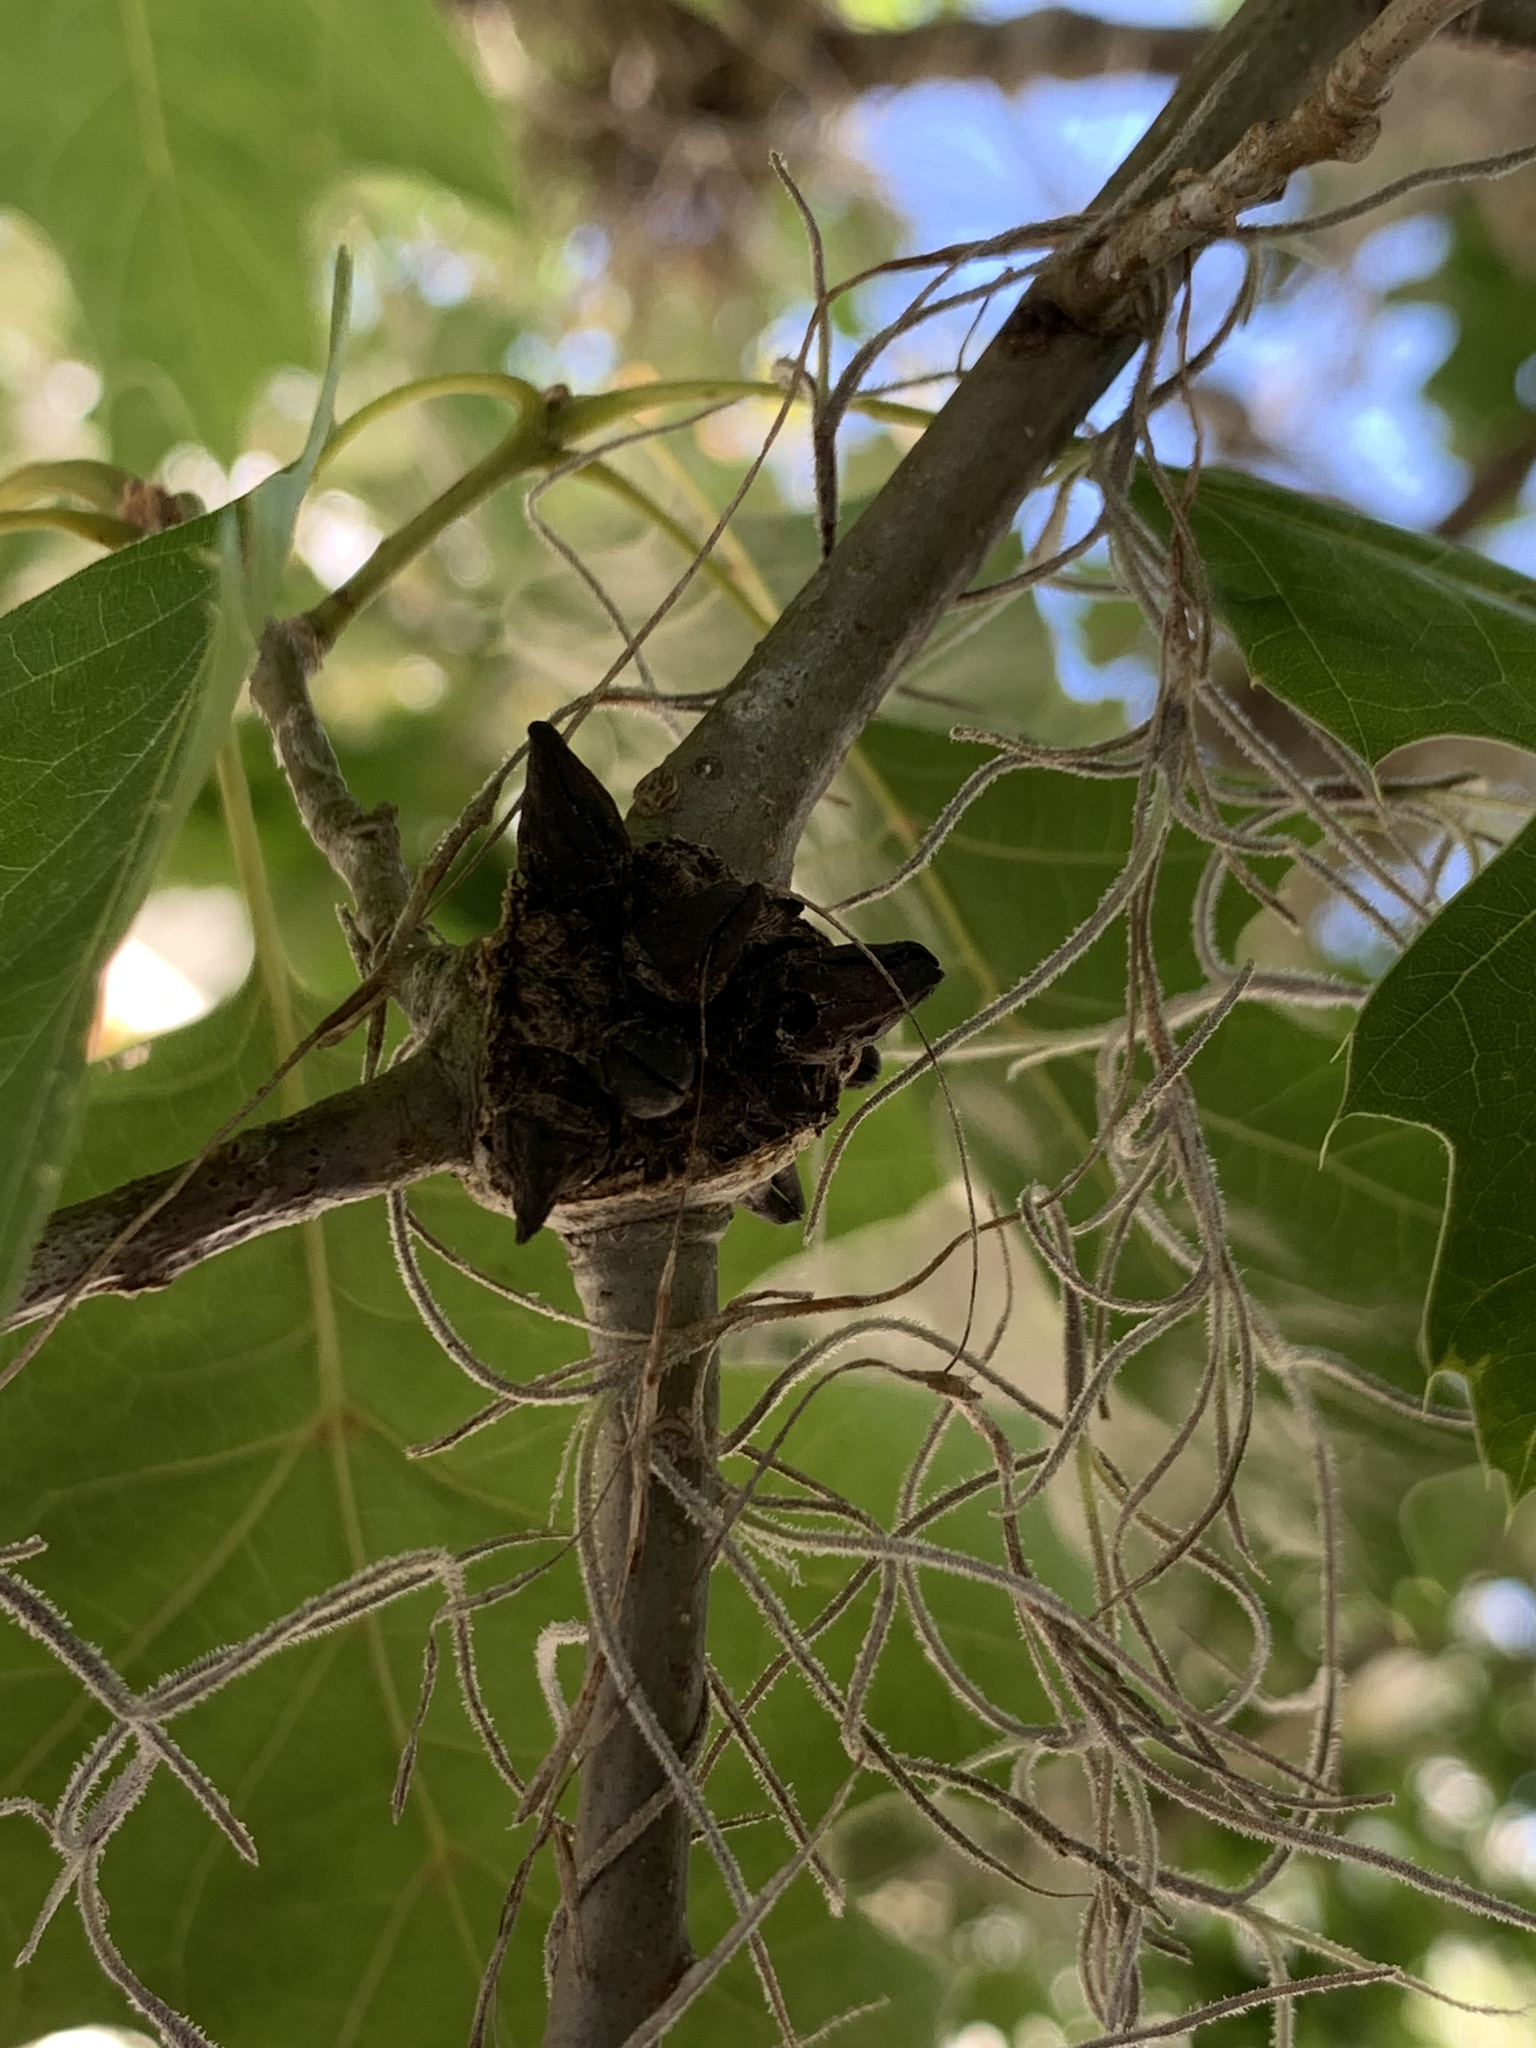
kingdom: Animalia
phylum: Arthropoda
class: Insecta
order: Hymenoptera
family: Cynipidae
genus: Biorhiza
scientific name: Biorhiza
